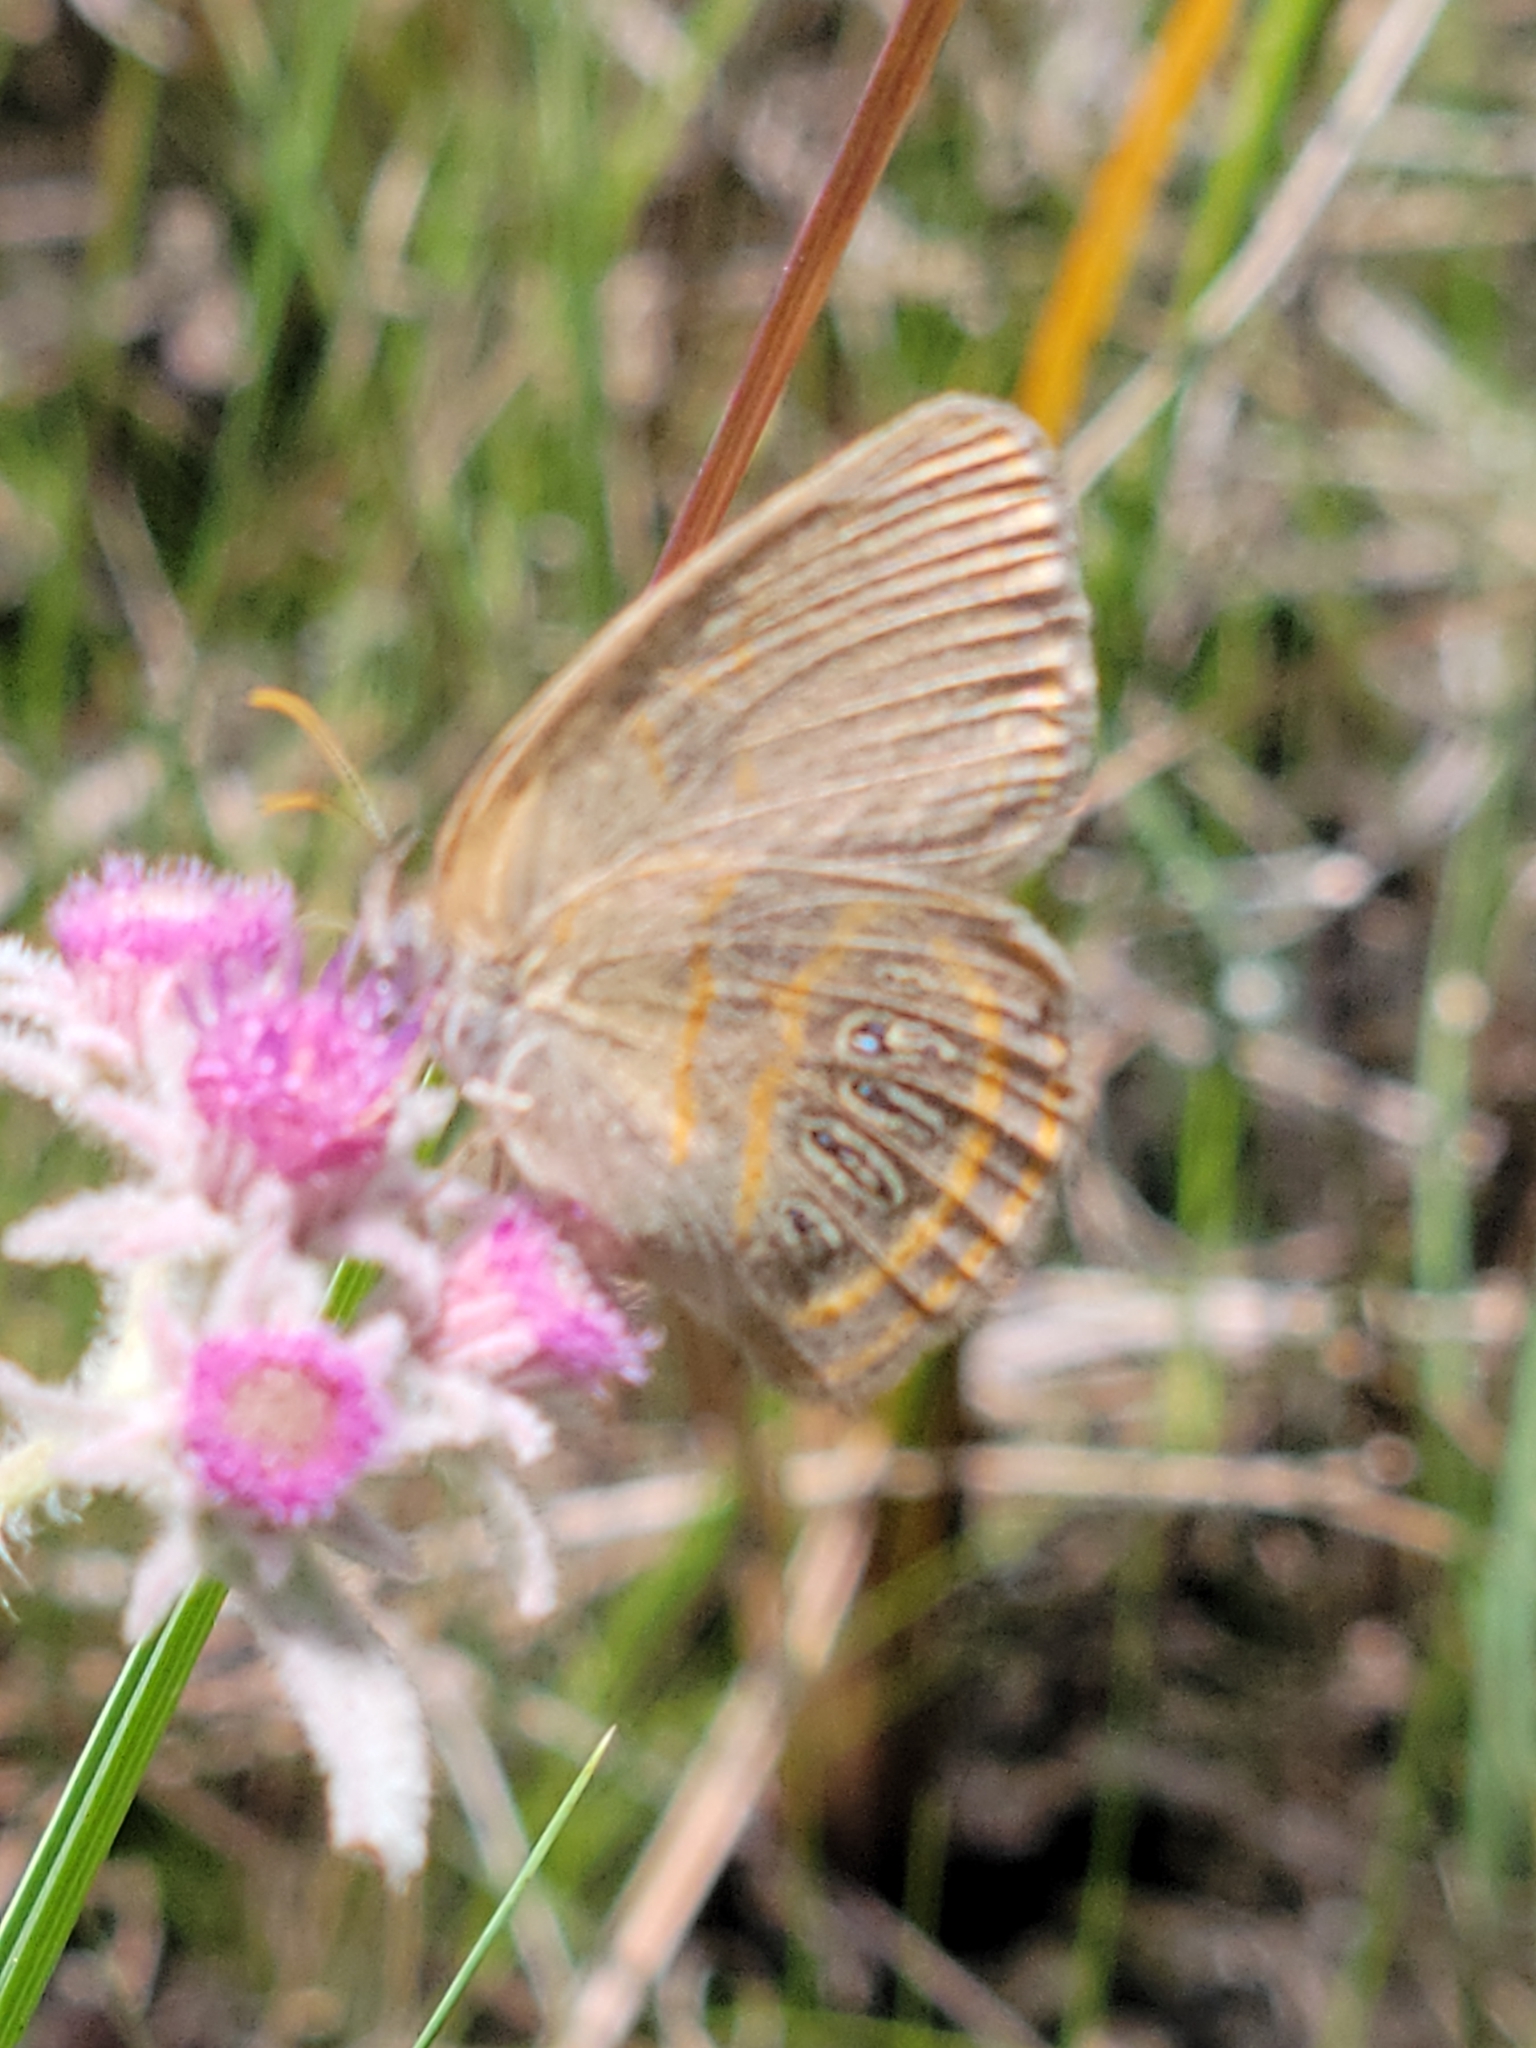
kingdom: Animalia
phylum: Arthropoda
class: Insecta
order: Lepidoptera
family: Nymphalidae
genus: Euptychia
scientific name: Euptychia phocion
